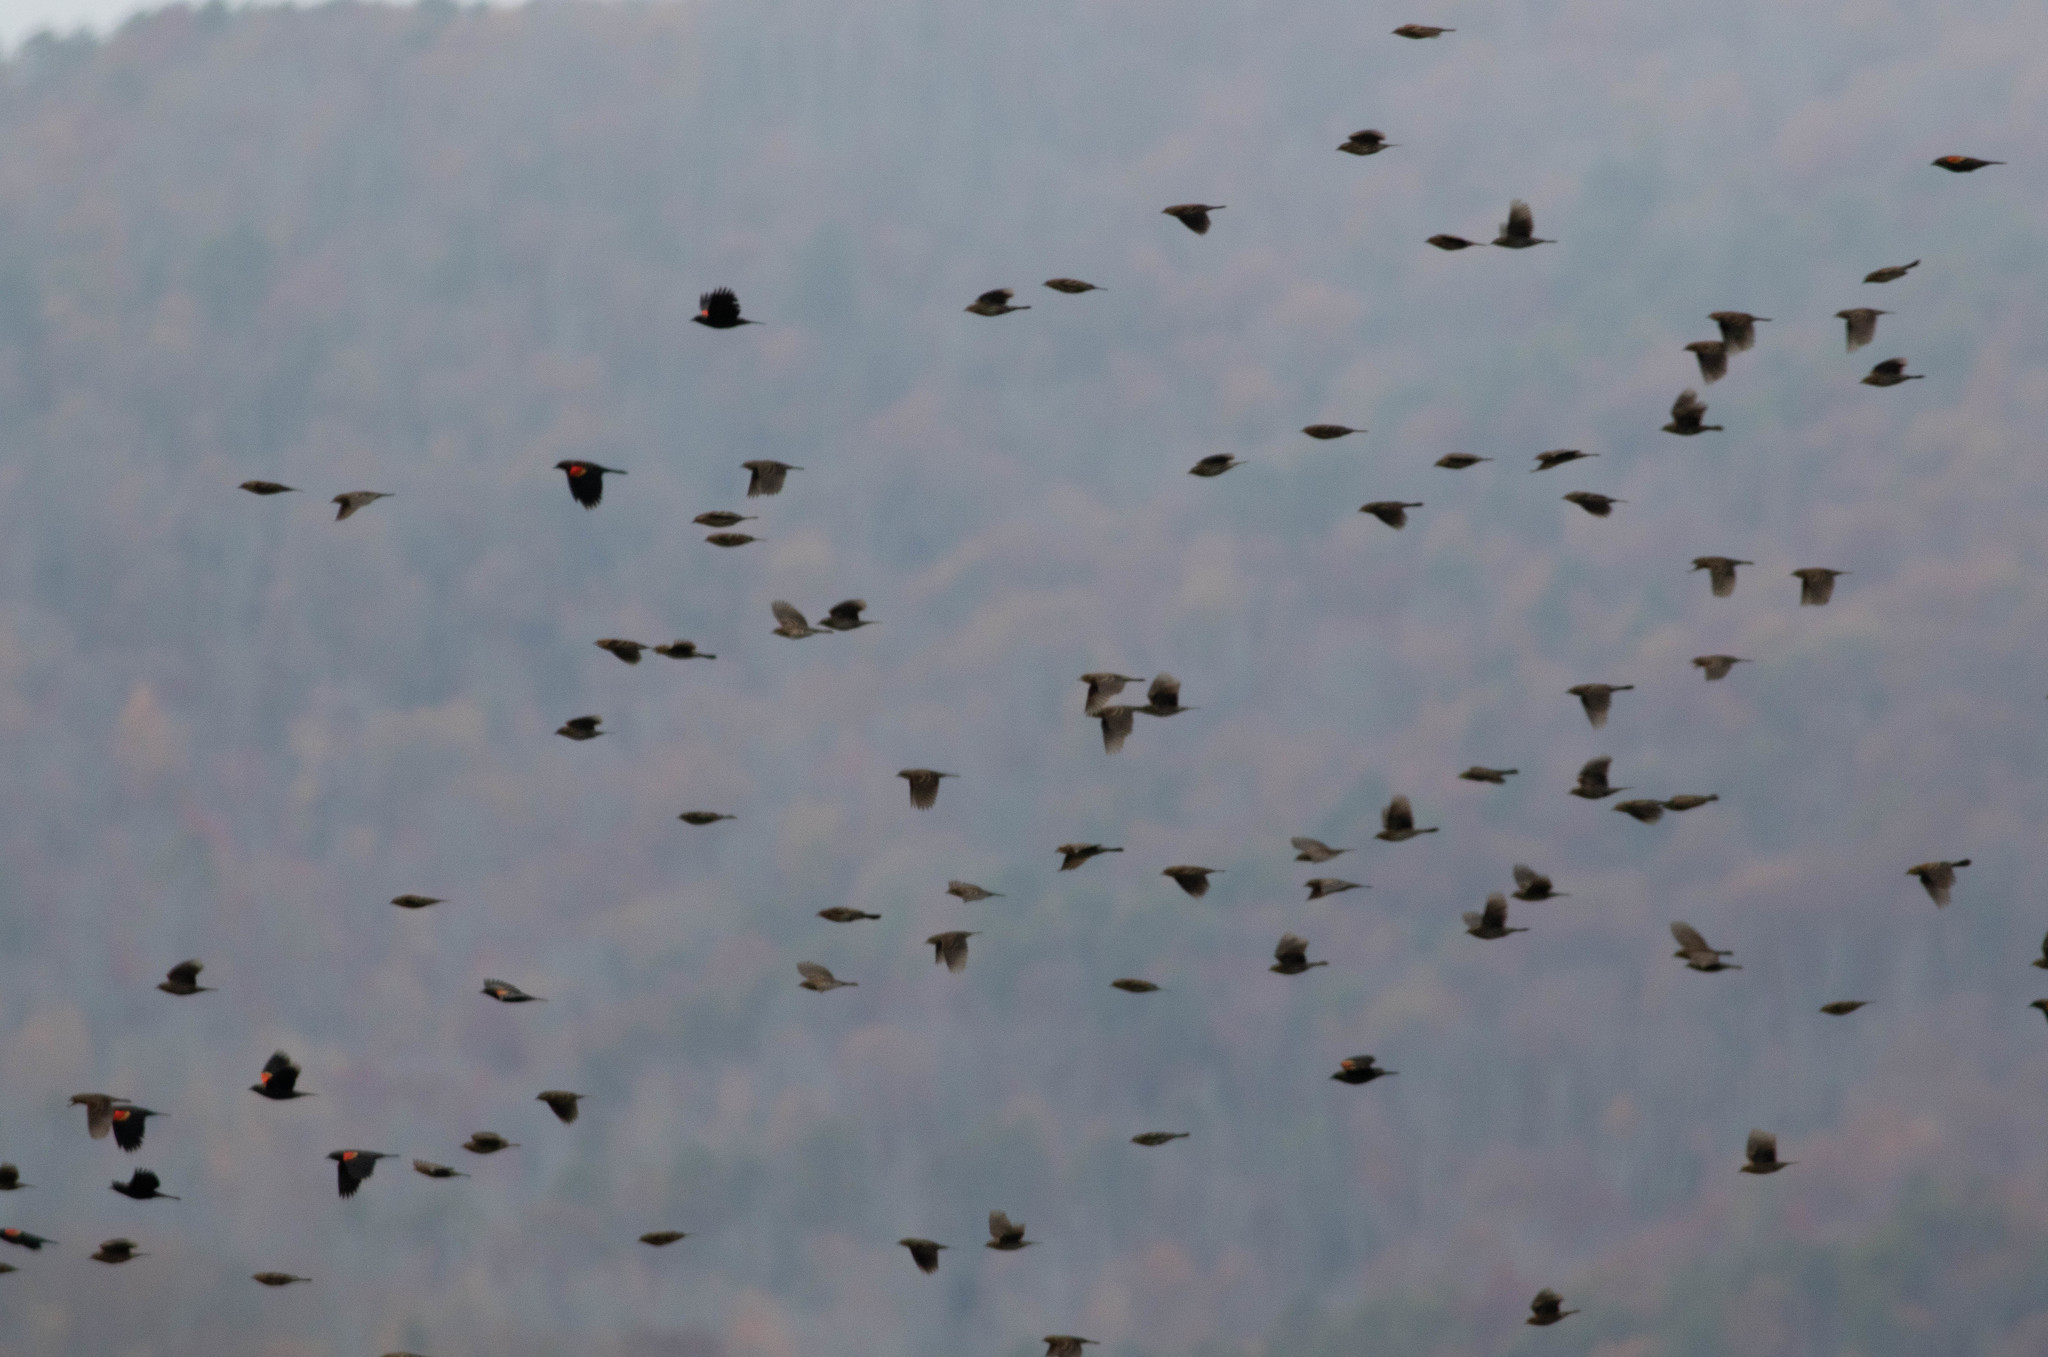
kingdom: Animalia
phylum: Chordata
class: Aves
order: Passeriformes
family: Icteridae
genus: Agelaius
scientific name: Agelaius phoeniceus
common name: Red-winged blackbird
